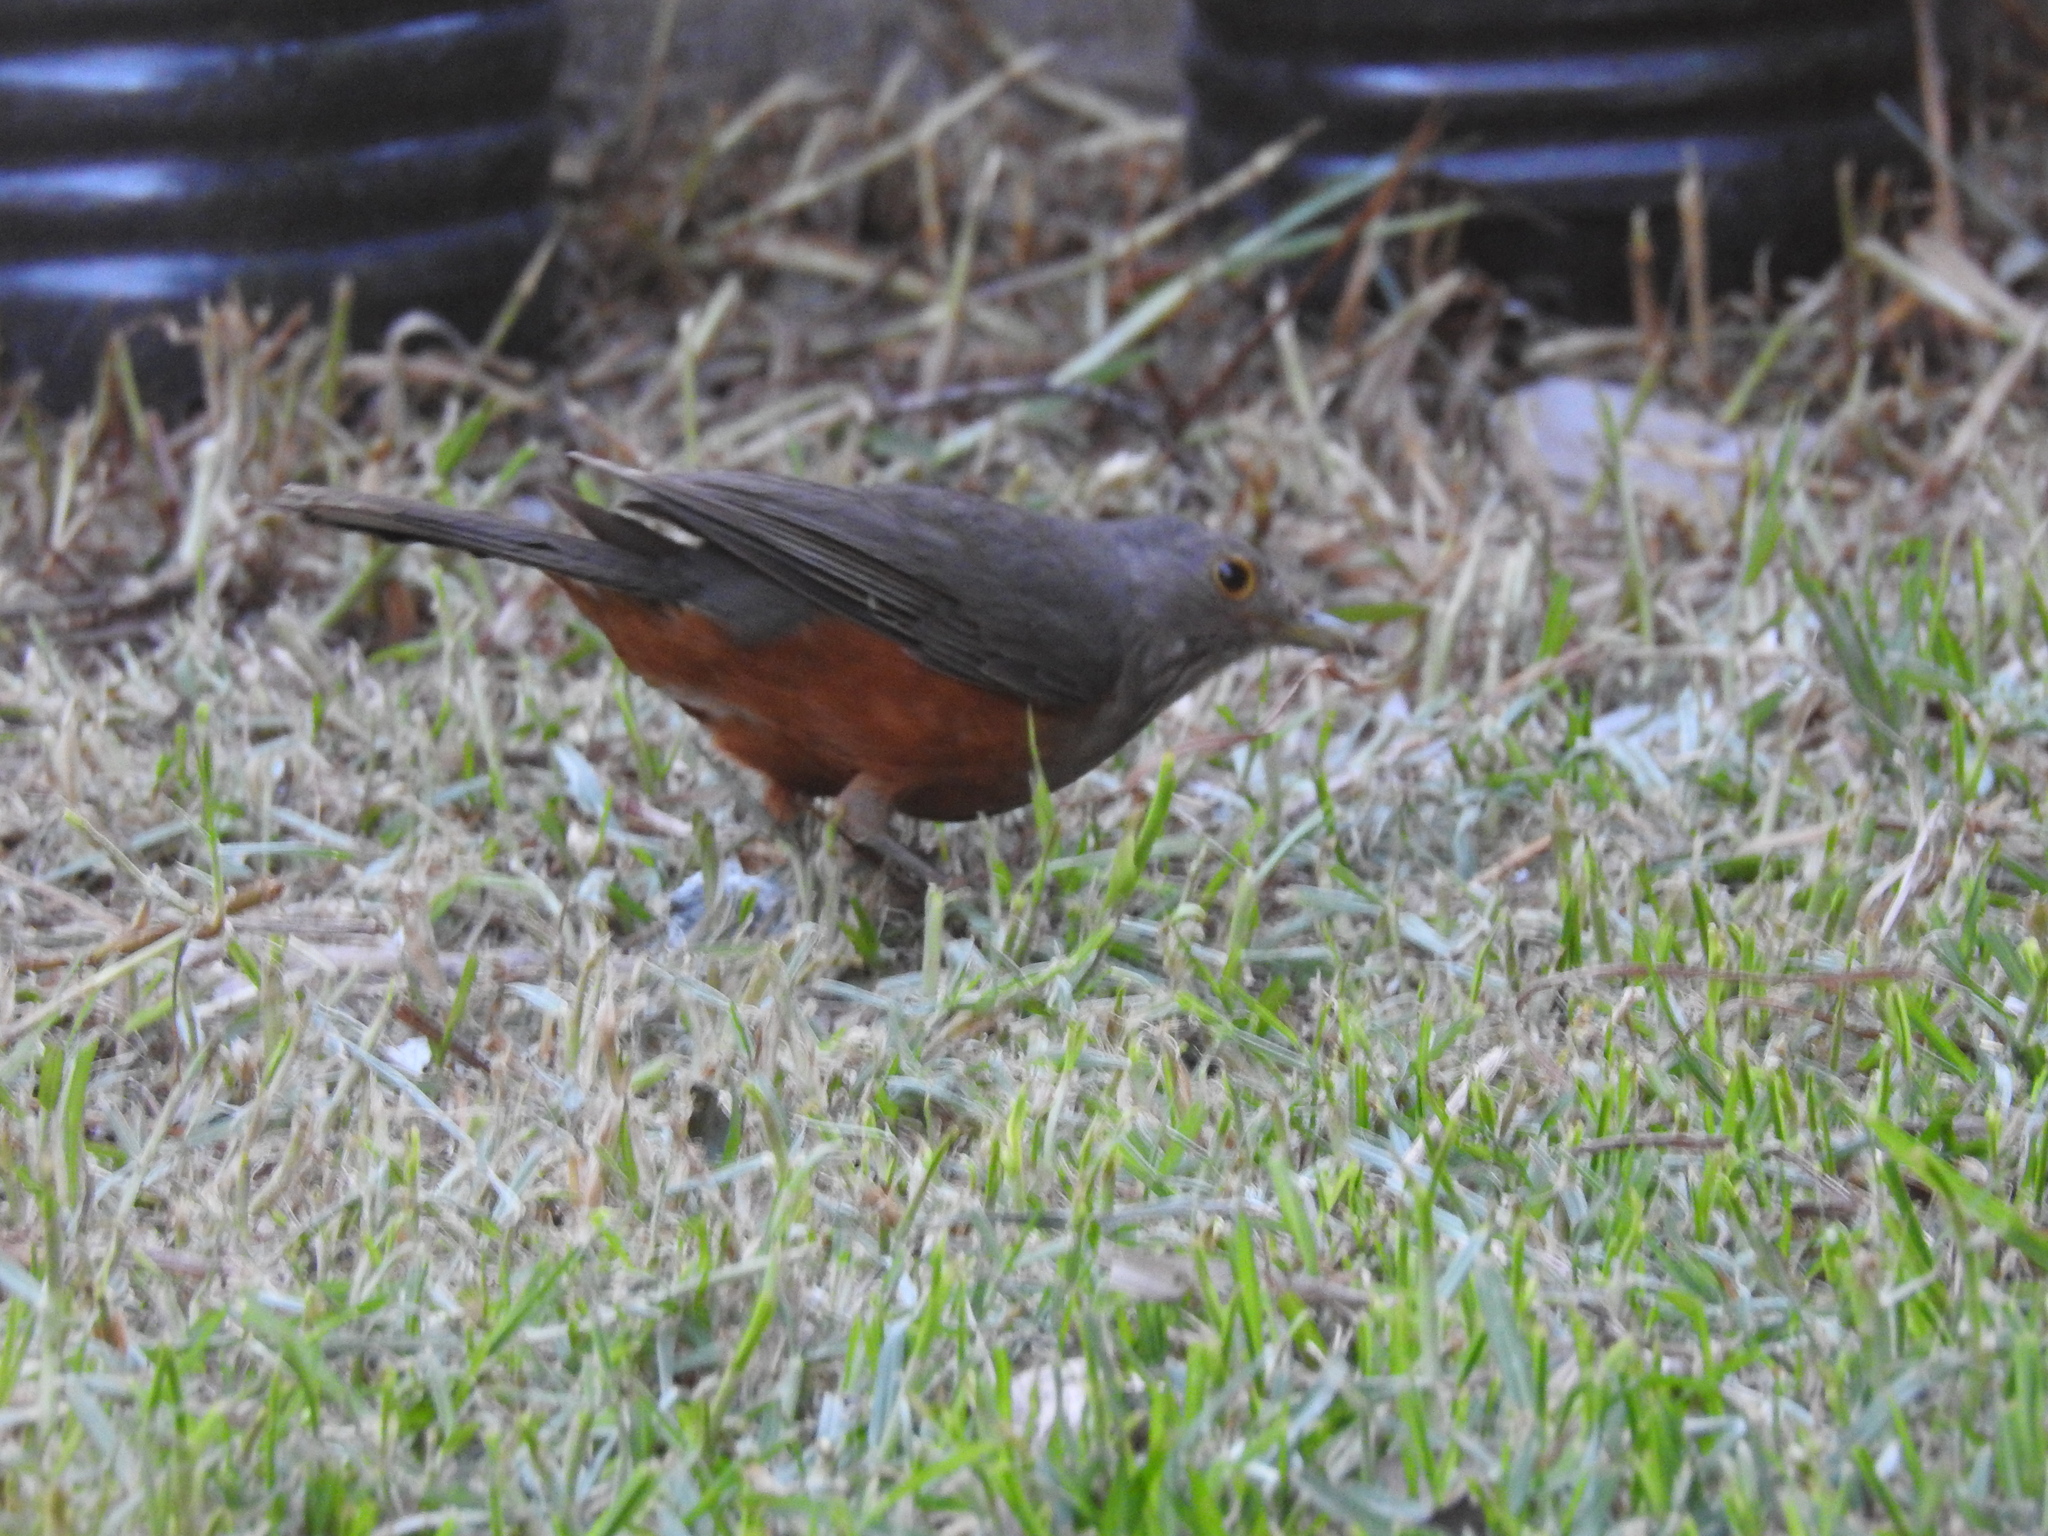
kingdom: Animalia
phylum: Chordata
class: Aves
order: Passeriformes
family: Turdidae
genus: Turdus
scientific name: Turdus rufiventris
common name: Rufous-bellied thrush
